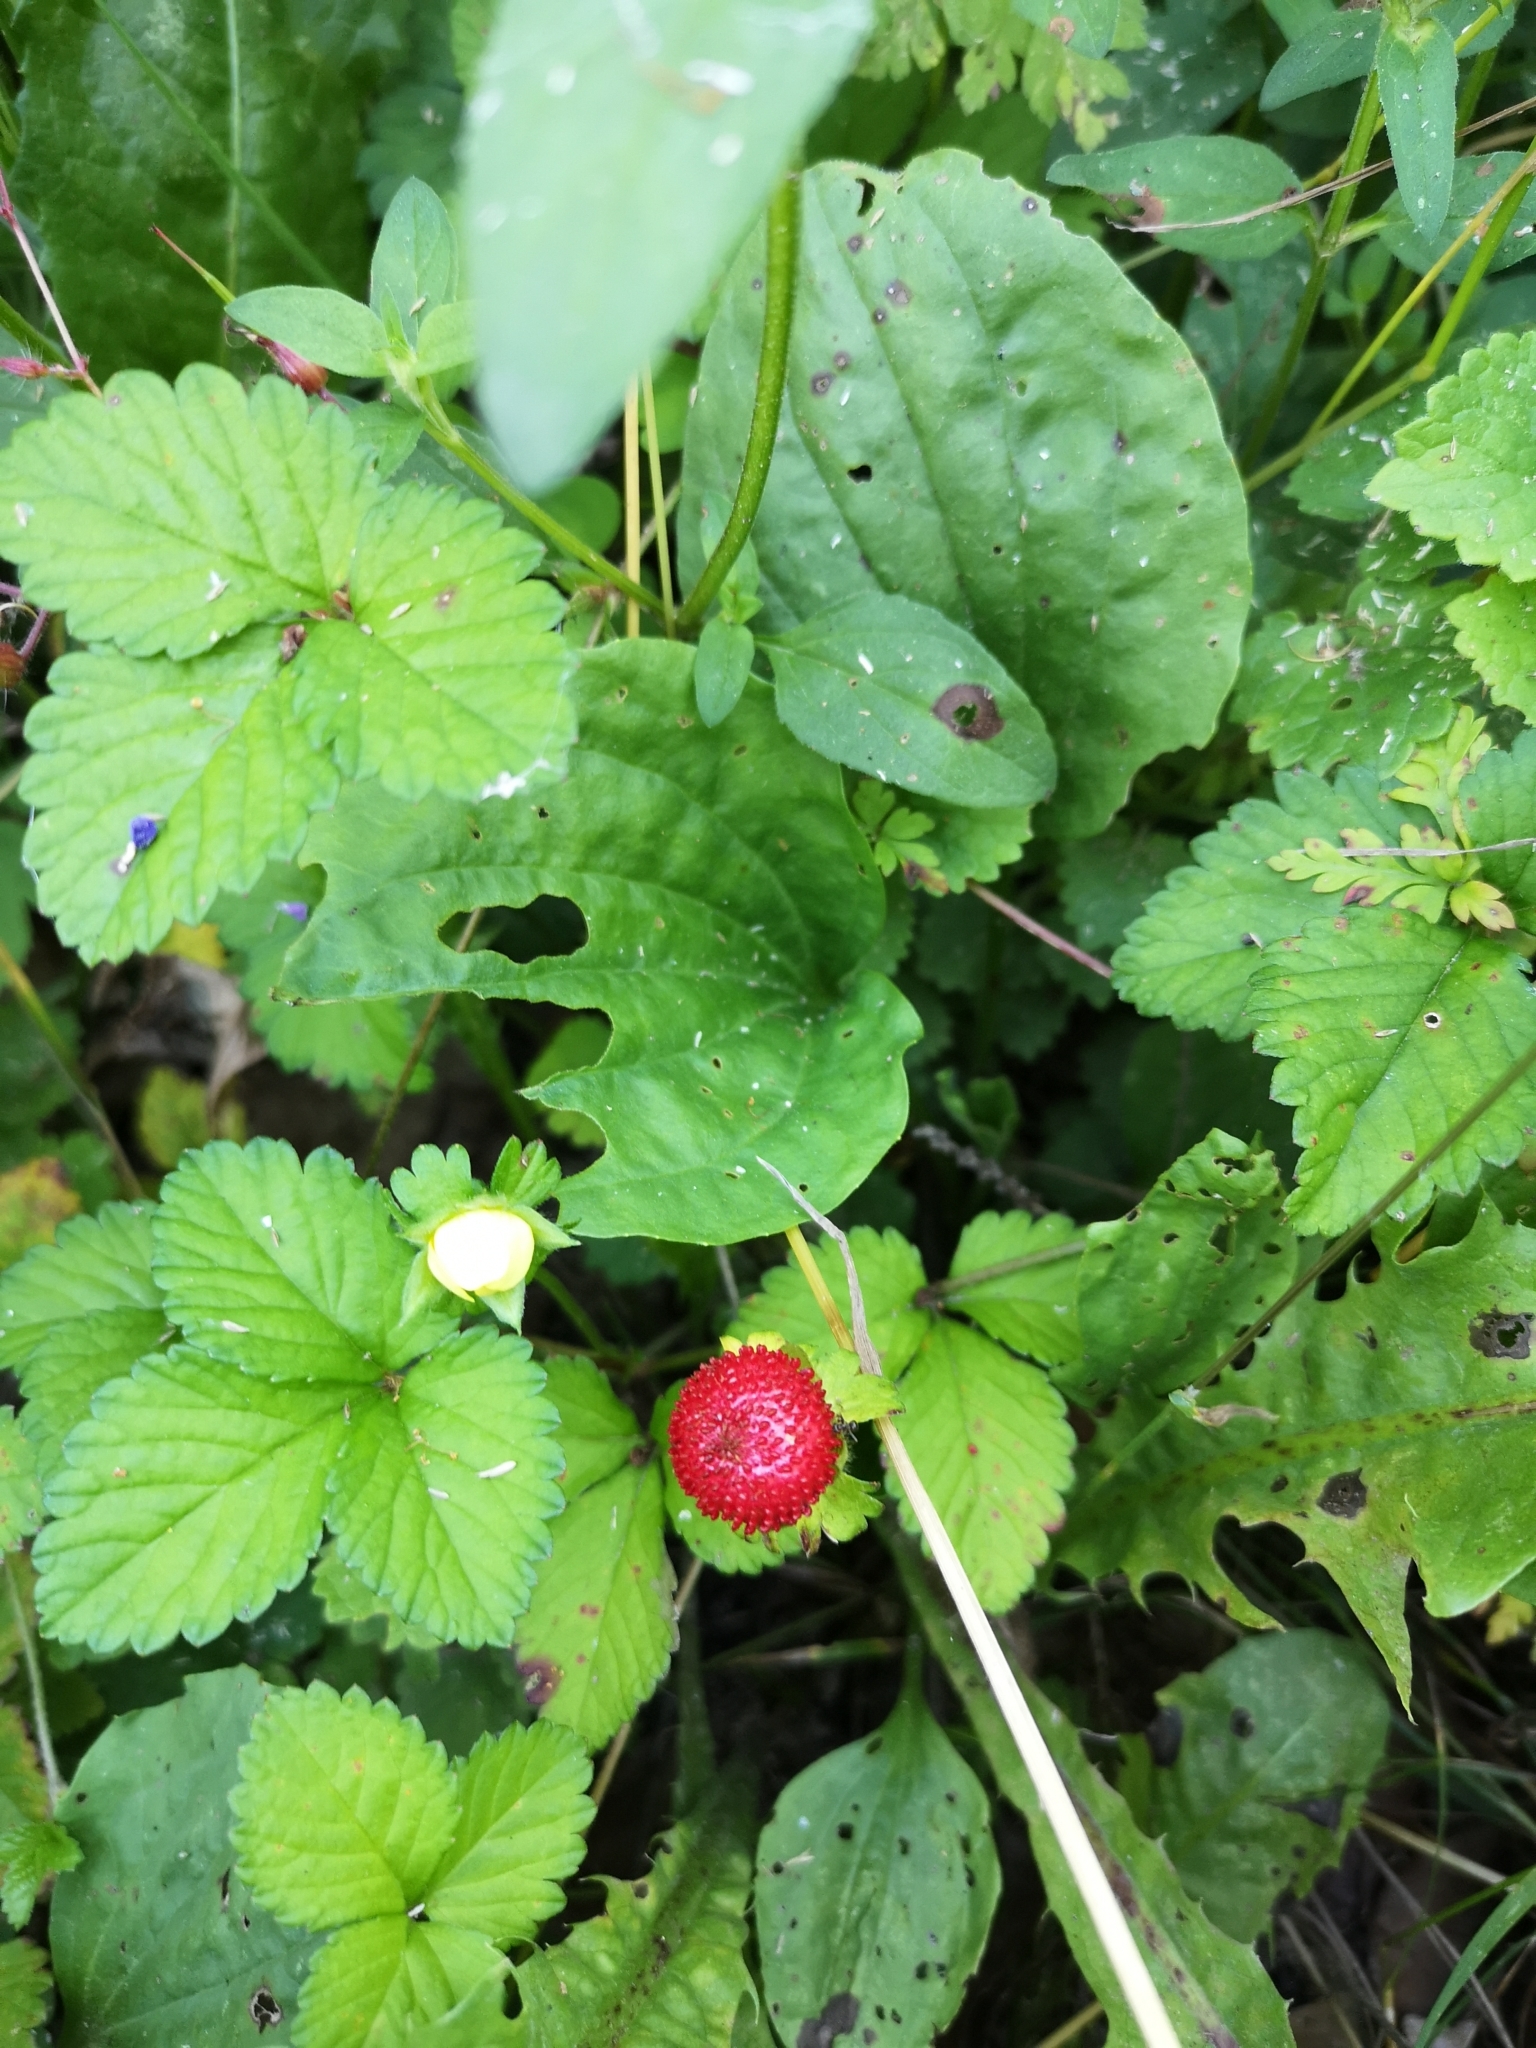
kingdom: Plantae
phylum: Tracheophyta
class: Magnoliopsida
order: Rosales
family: Rosaceae
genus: Potentilla
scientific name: Potentilla indica
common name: Yellow-flowered strawberry
